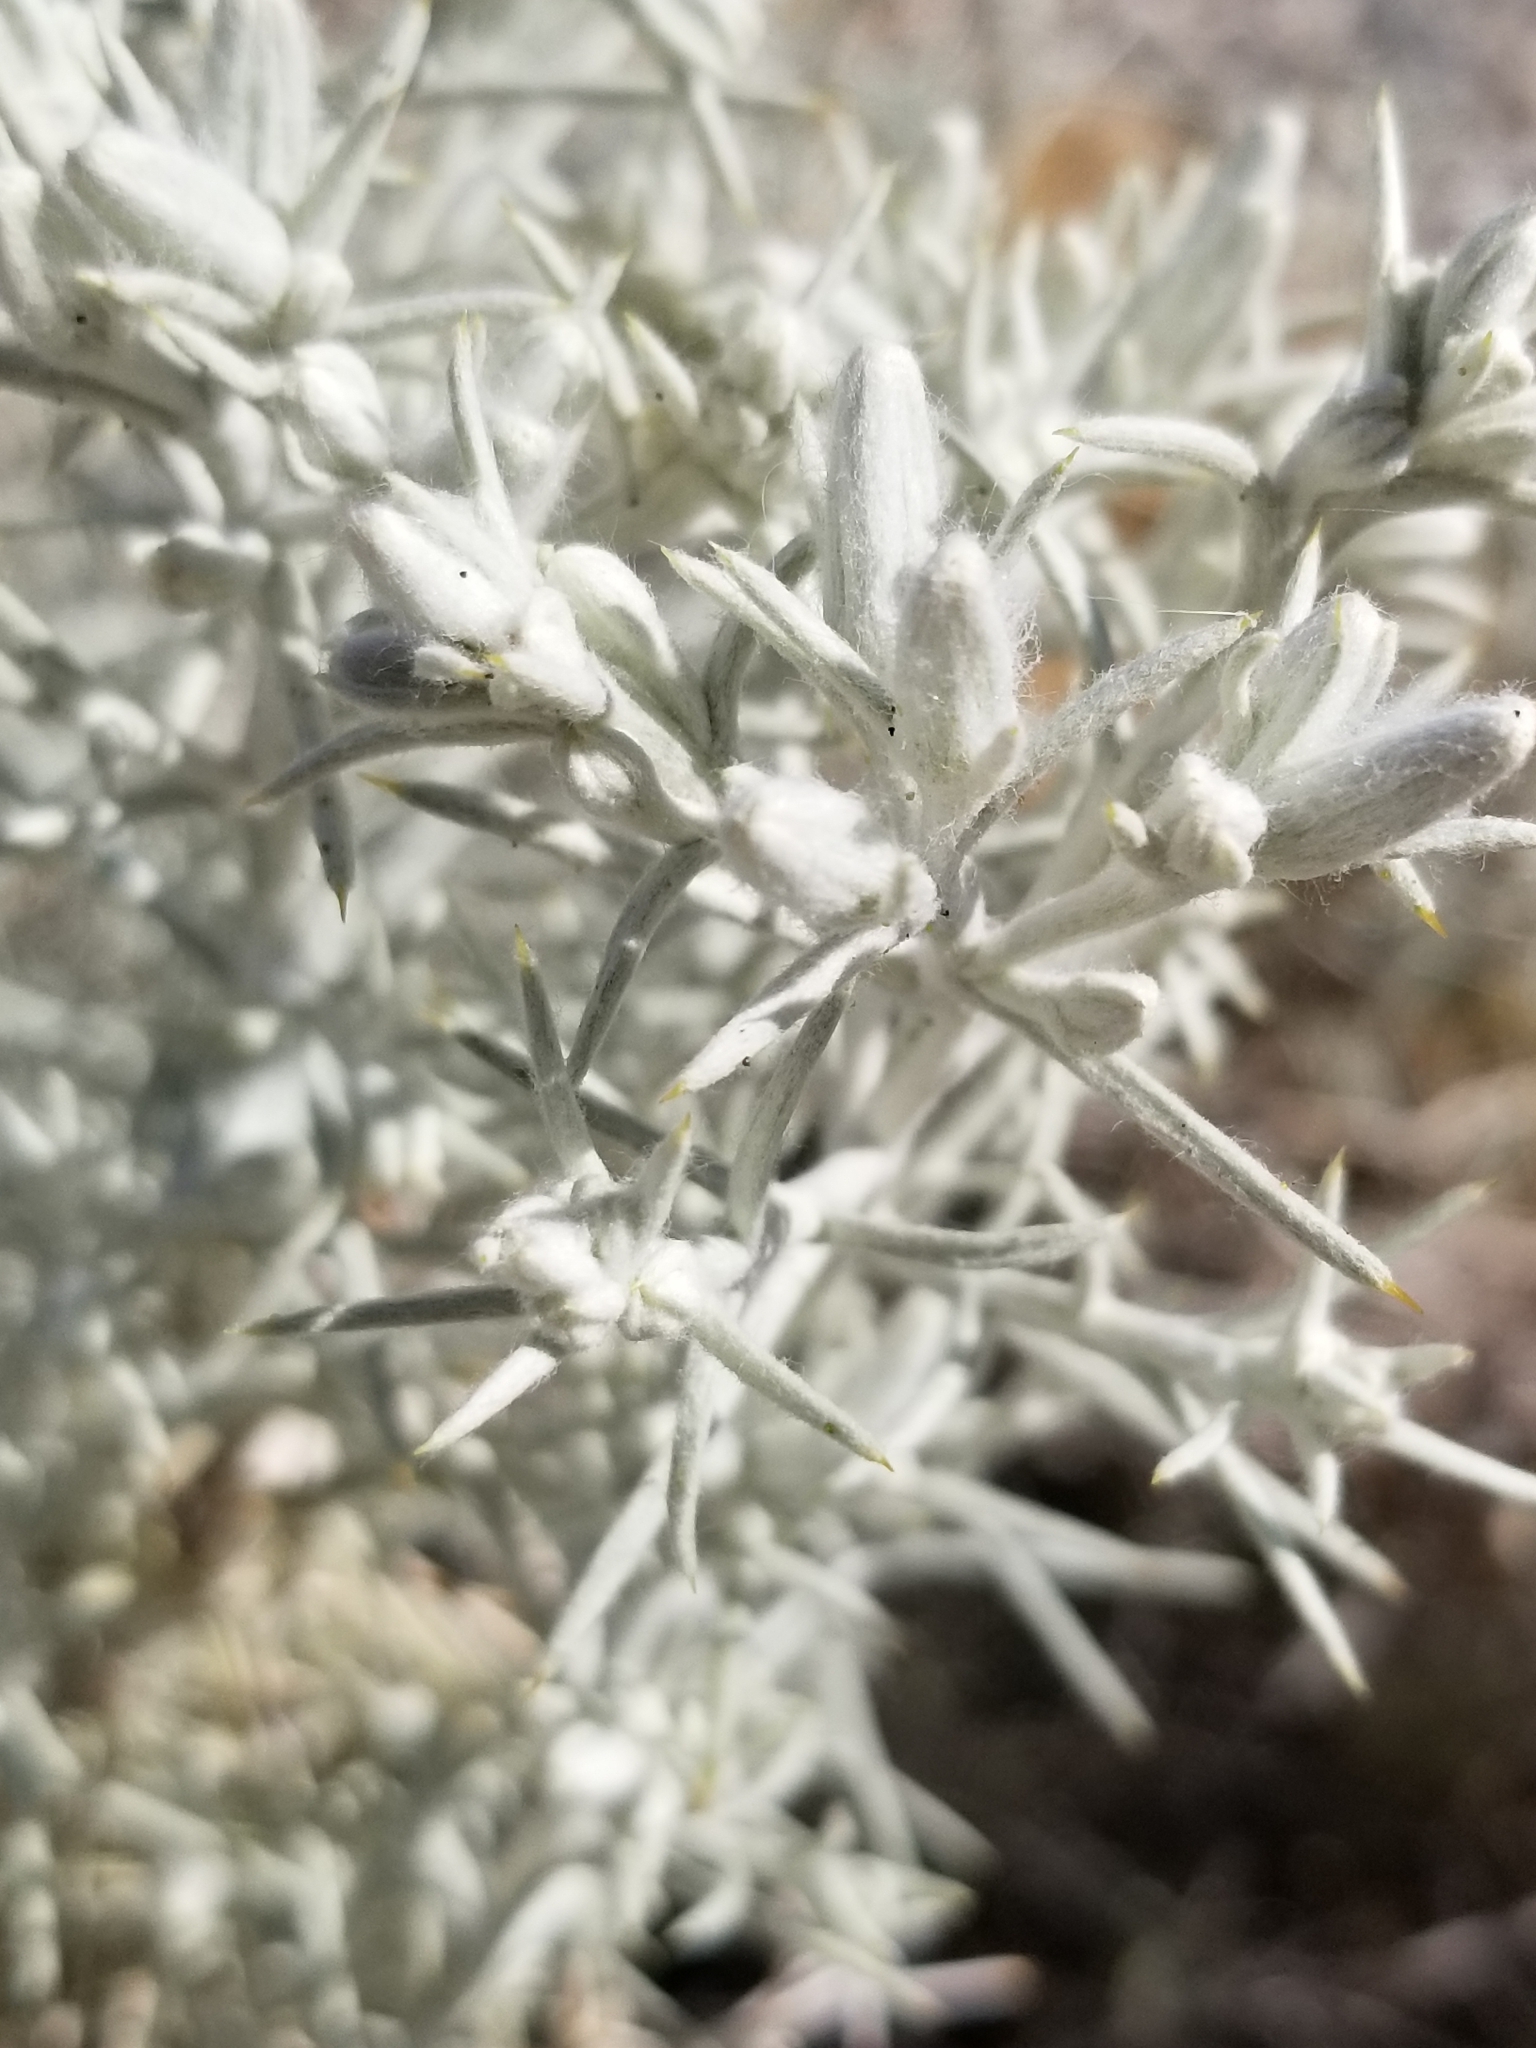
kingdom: Plantae
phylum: Tracheophyta
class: Magnoliopsida
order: Asterales
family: Asteraceae
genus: Tetradymia
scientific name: Tetradymia stenolepis
